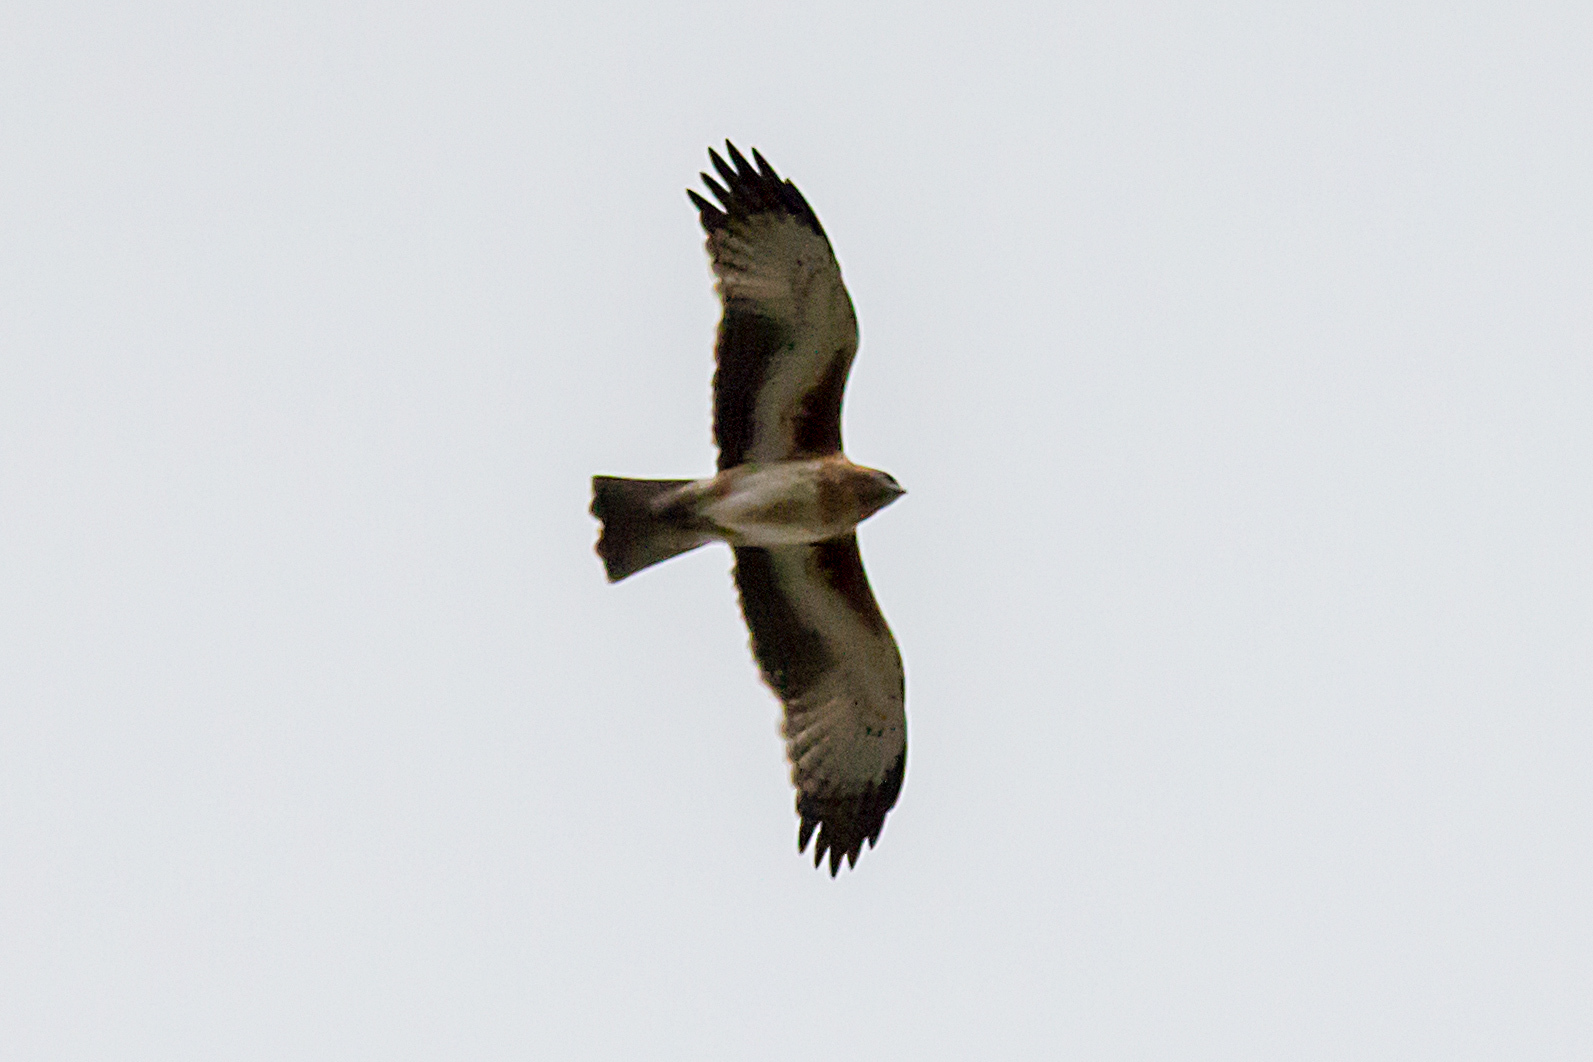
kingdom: Animalia
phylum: Chordata
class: Aves
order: Accipitriformes
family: Accipitridae
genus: Hieraaetus
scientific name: Hieraaetus morphnoides
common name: Little eagle
